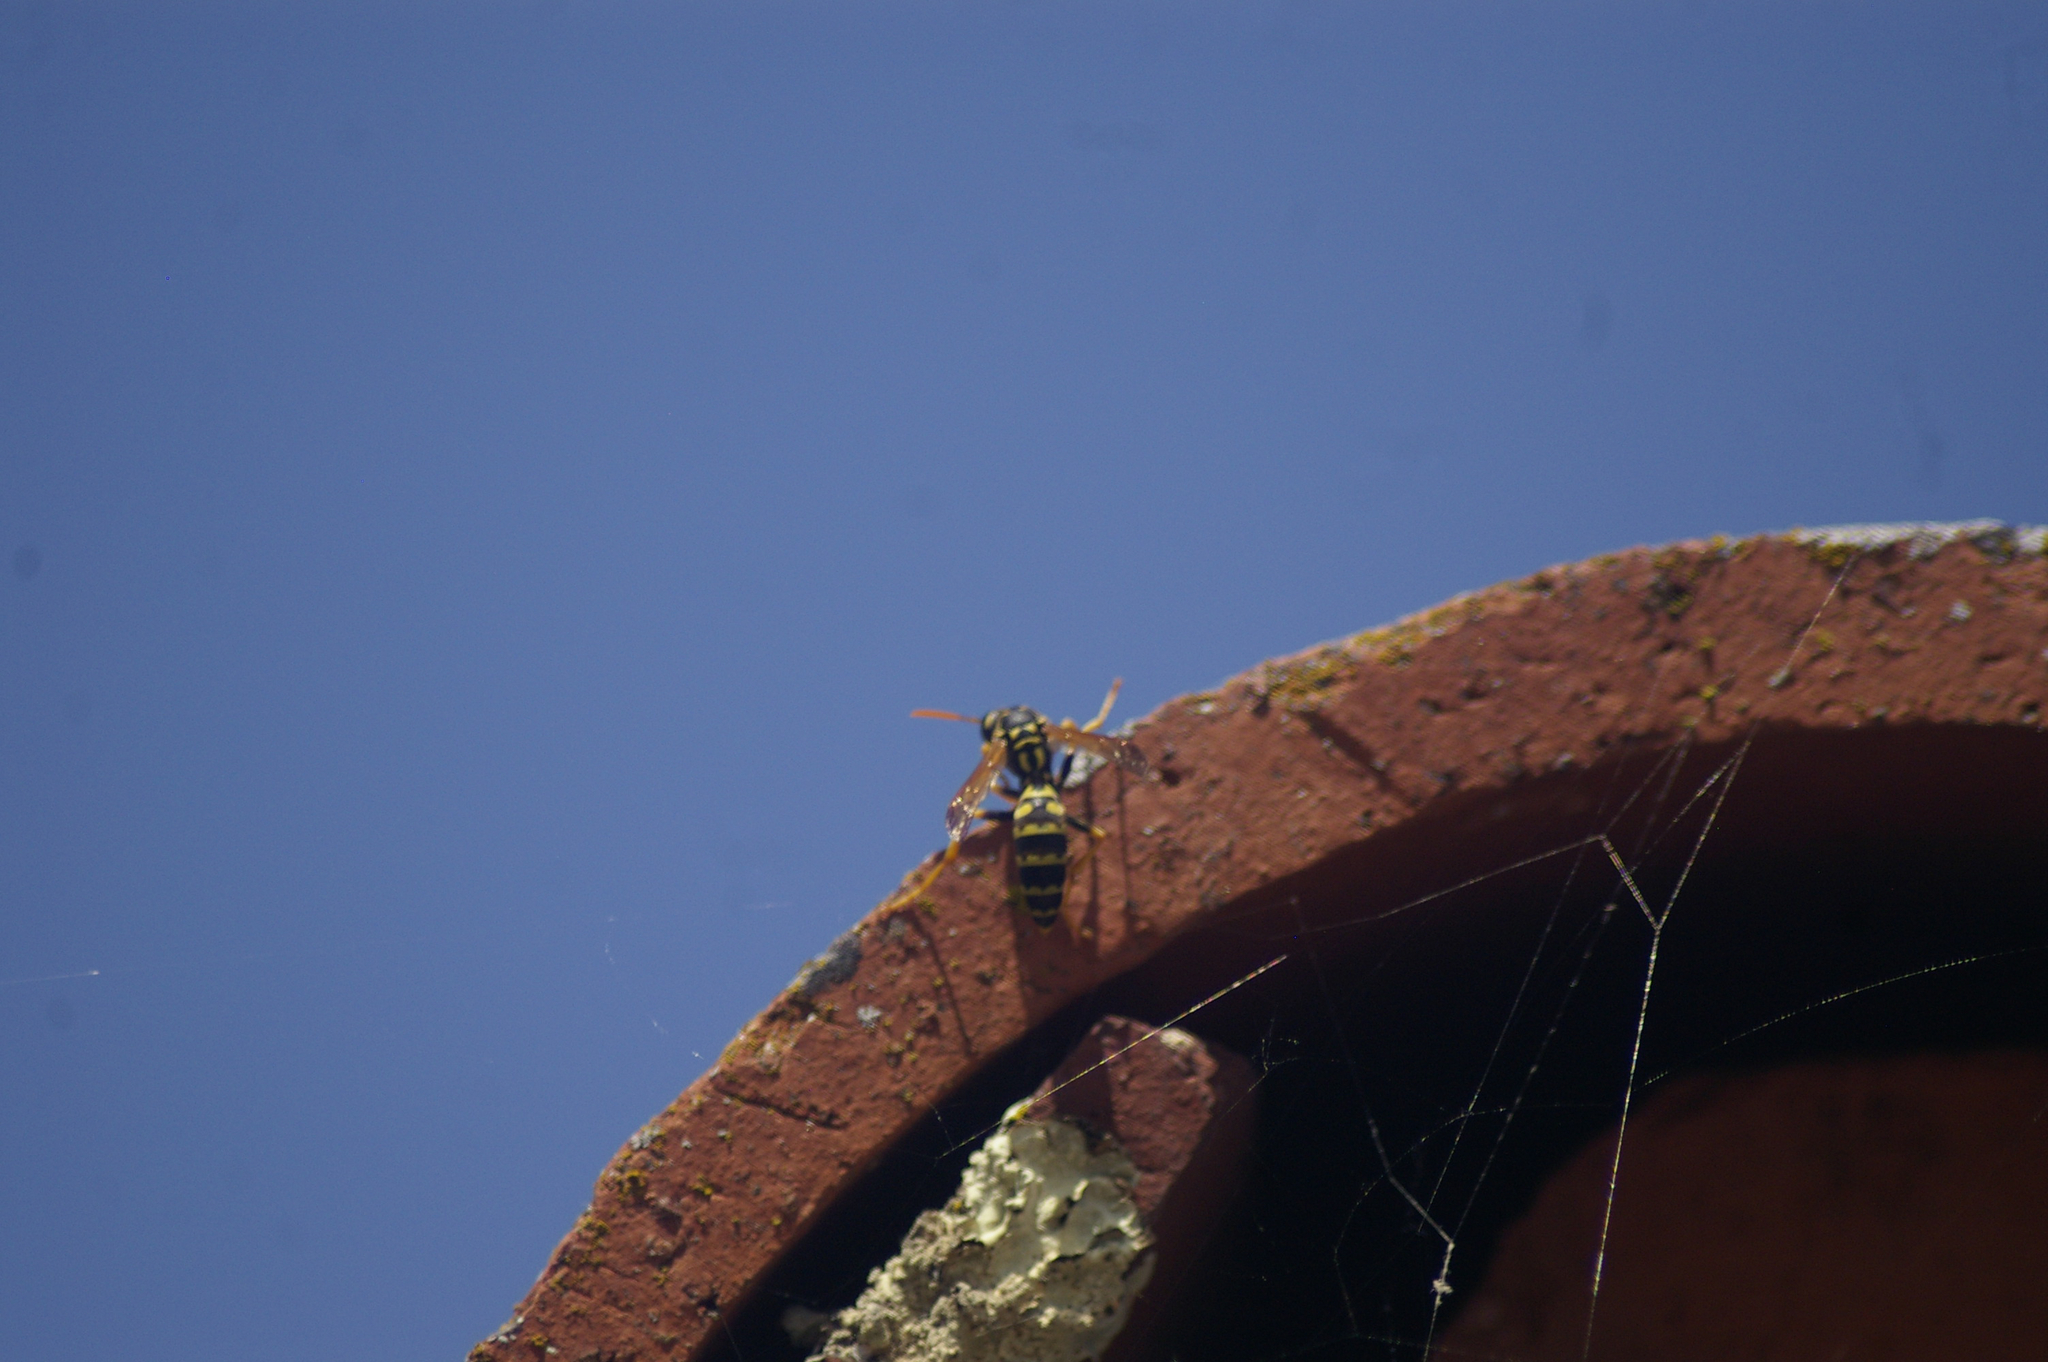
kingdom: Animalia
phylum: Arthropoda
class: Insecta
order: Hymenoptera
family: Eumenidae
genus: Polistes
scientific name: Polistes dominula
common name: Paper wasp
